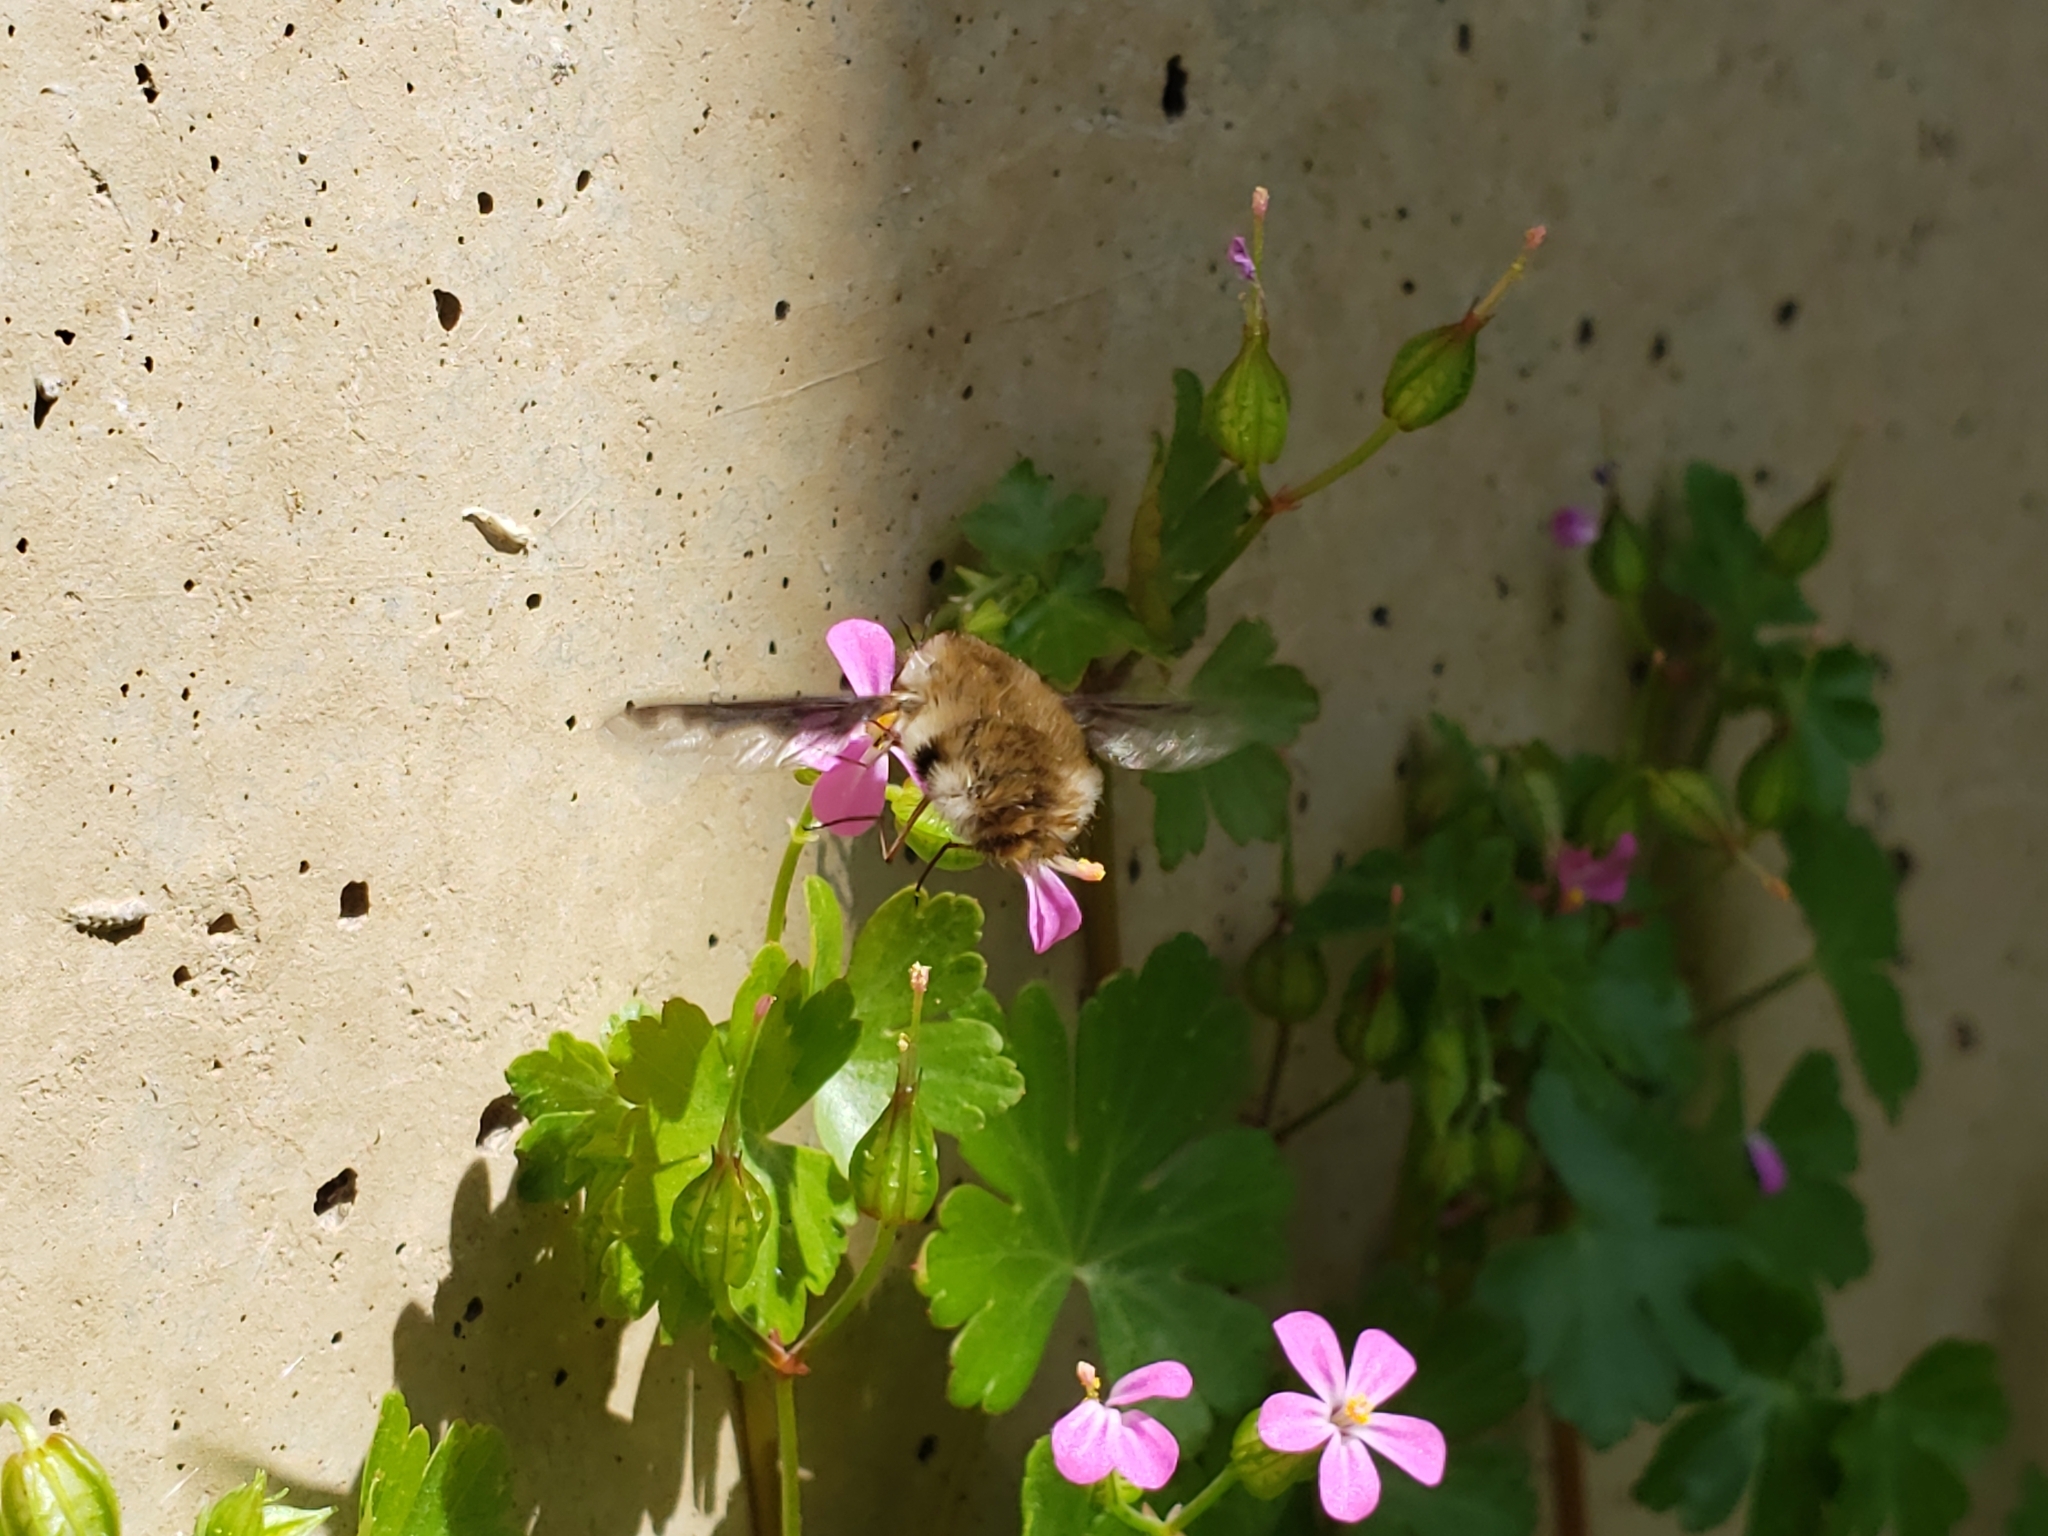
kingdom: Animalia
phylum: Arthropoda
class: Insecta
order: Diptera
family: Bombyliidae
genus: Bombylius
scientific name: Bombylius major
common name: Bee fly
